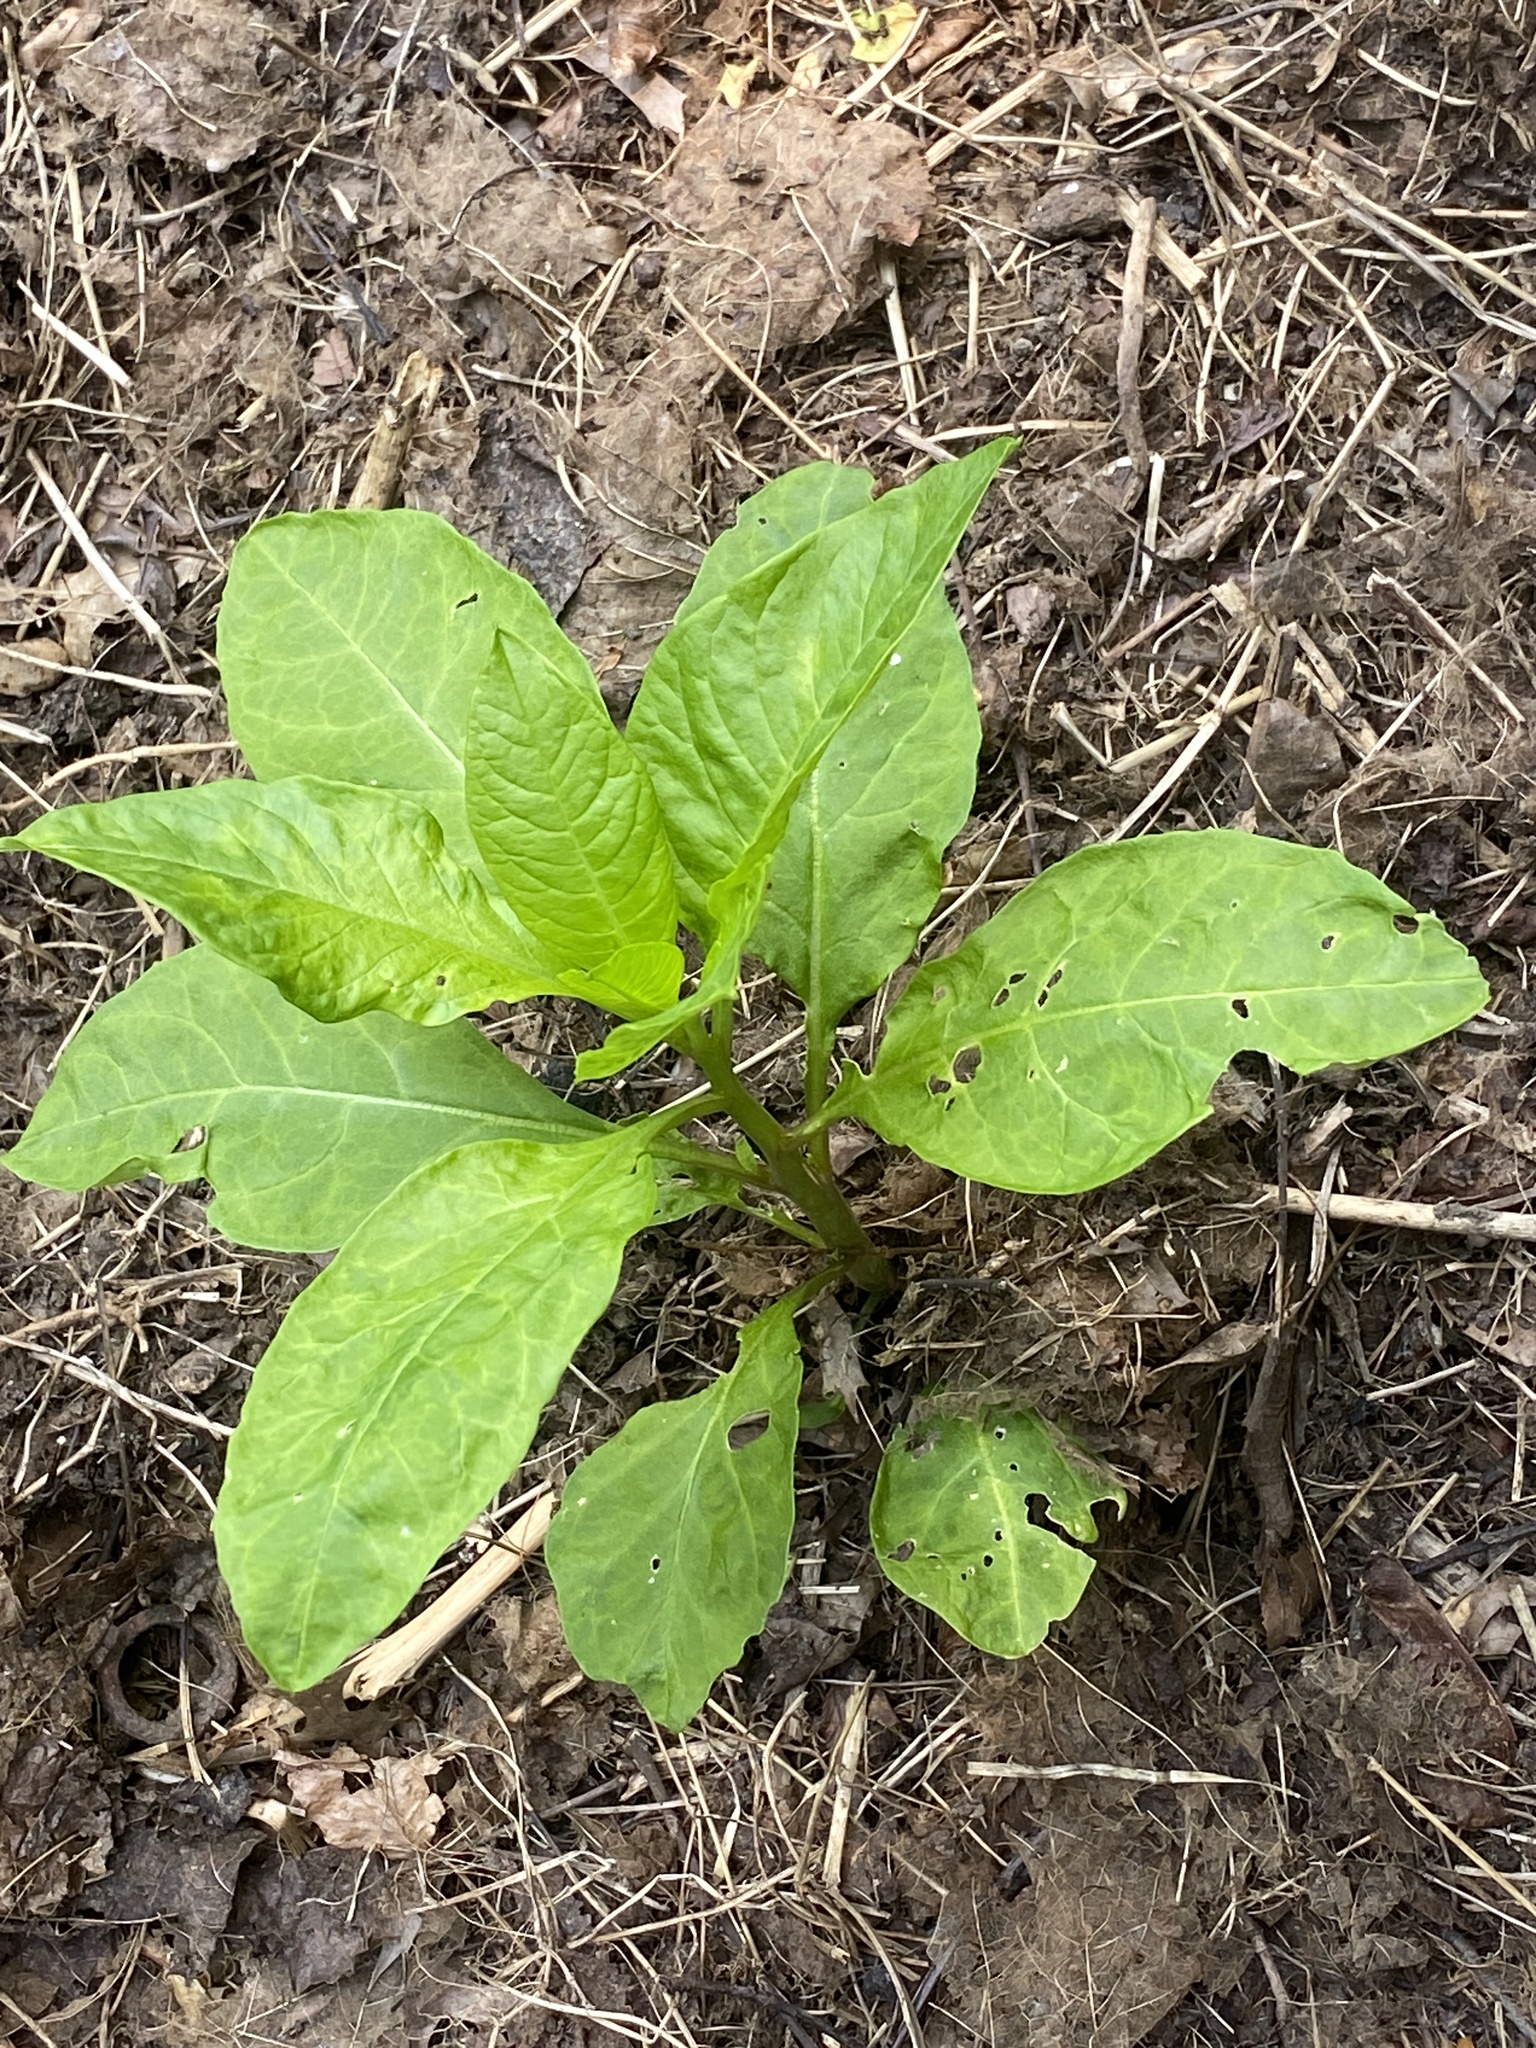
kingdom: Plantae
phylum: Tracheophyta
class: Magnoliopsida
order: Caryophyllales
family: Phytolaccaceae
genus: Phytolacca
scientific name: Phytolacca americana
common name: American pokeweed
